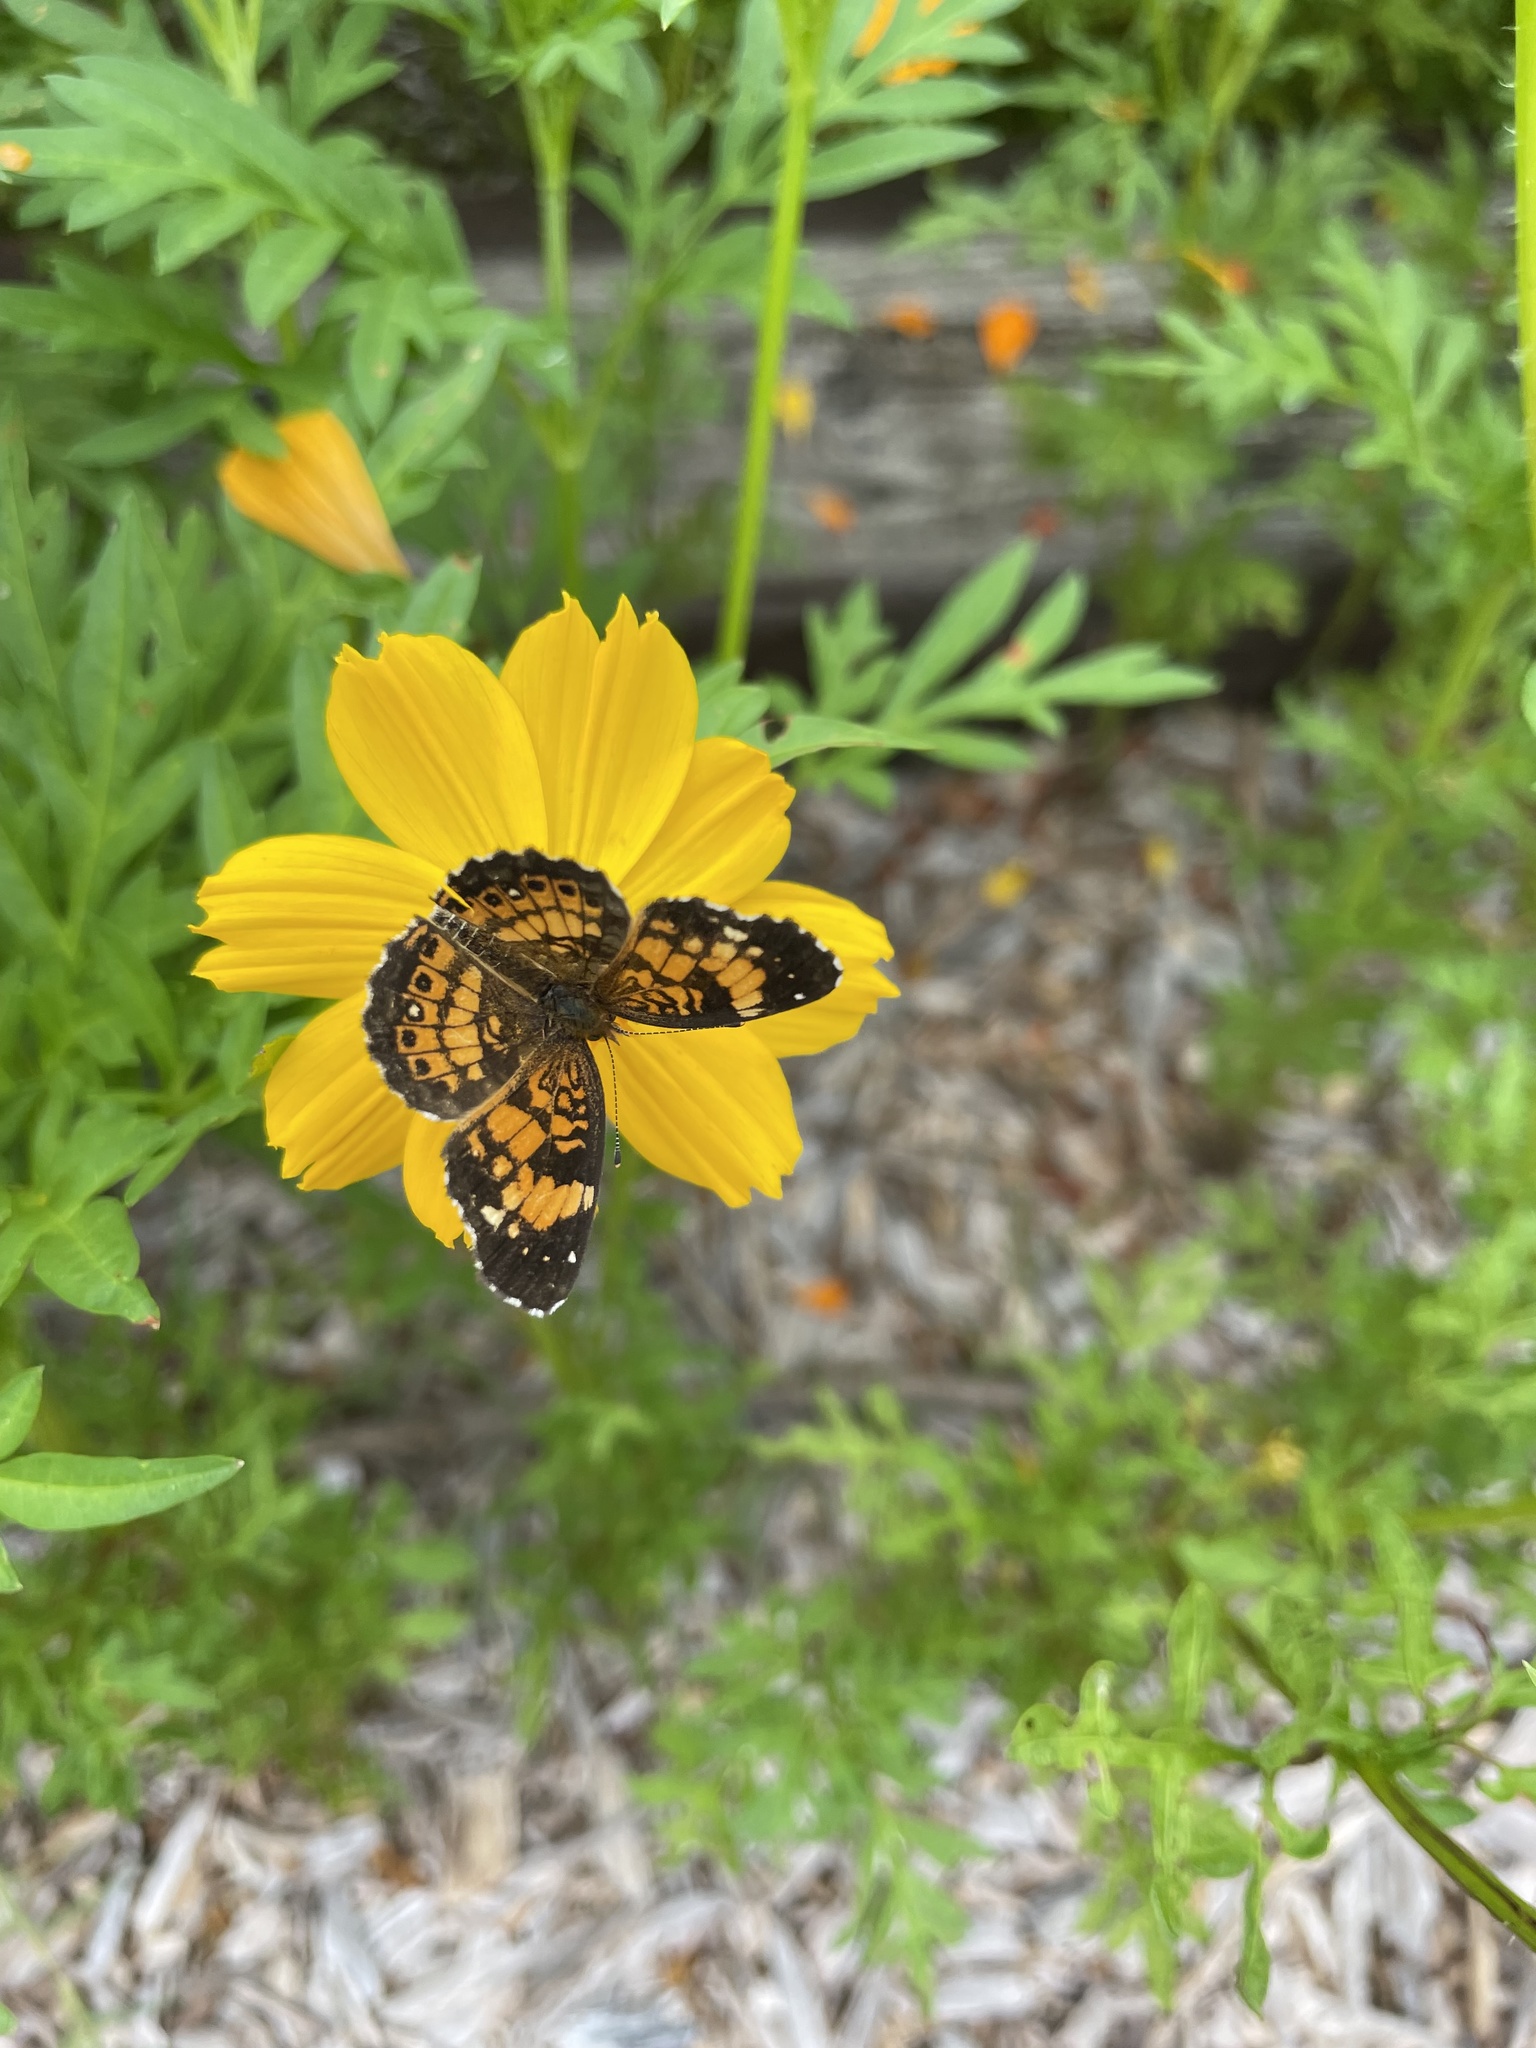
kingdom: Animalia
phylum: Arthropoda
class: Insecta
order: Lepidoptera
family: Nymphalidae
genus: Chlosyne
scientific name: Chlosyne nycteis
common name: Silvery checkerspot
